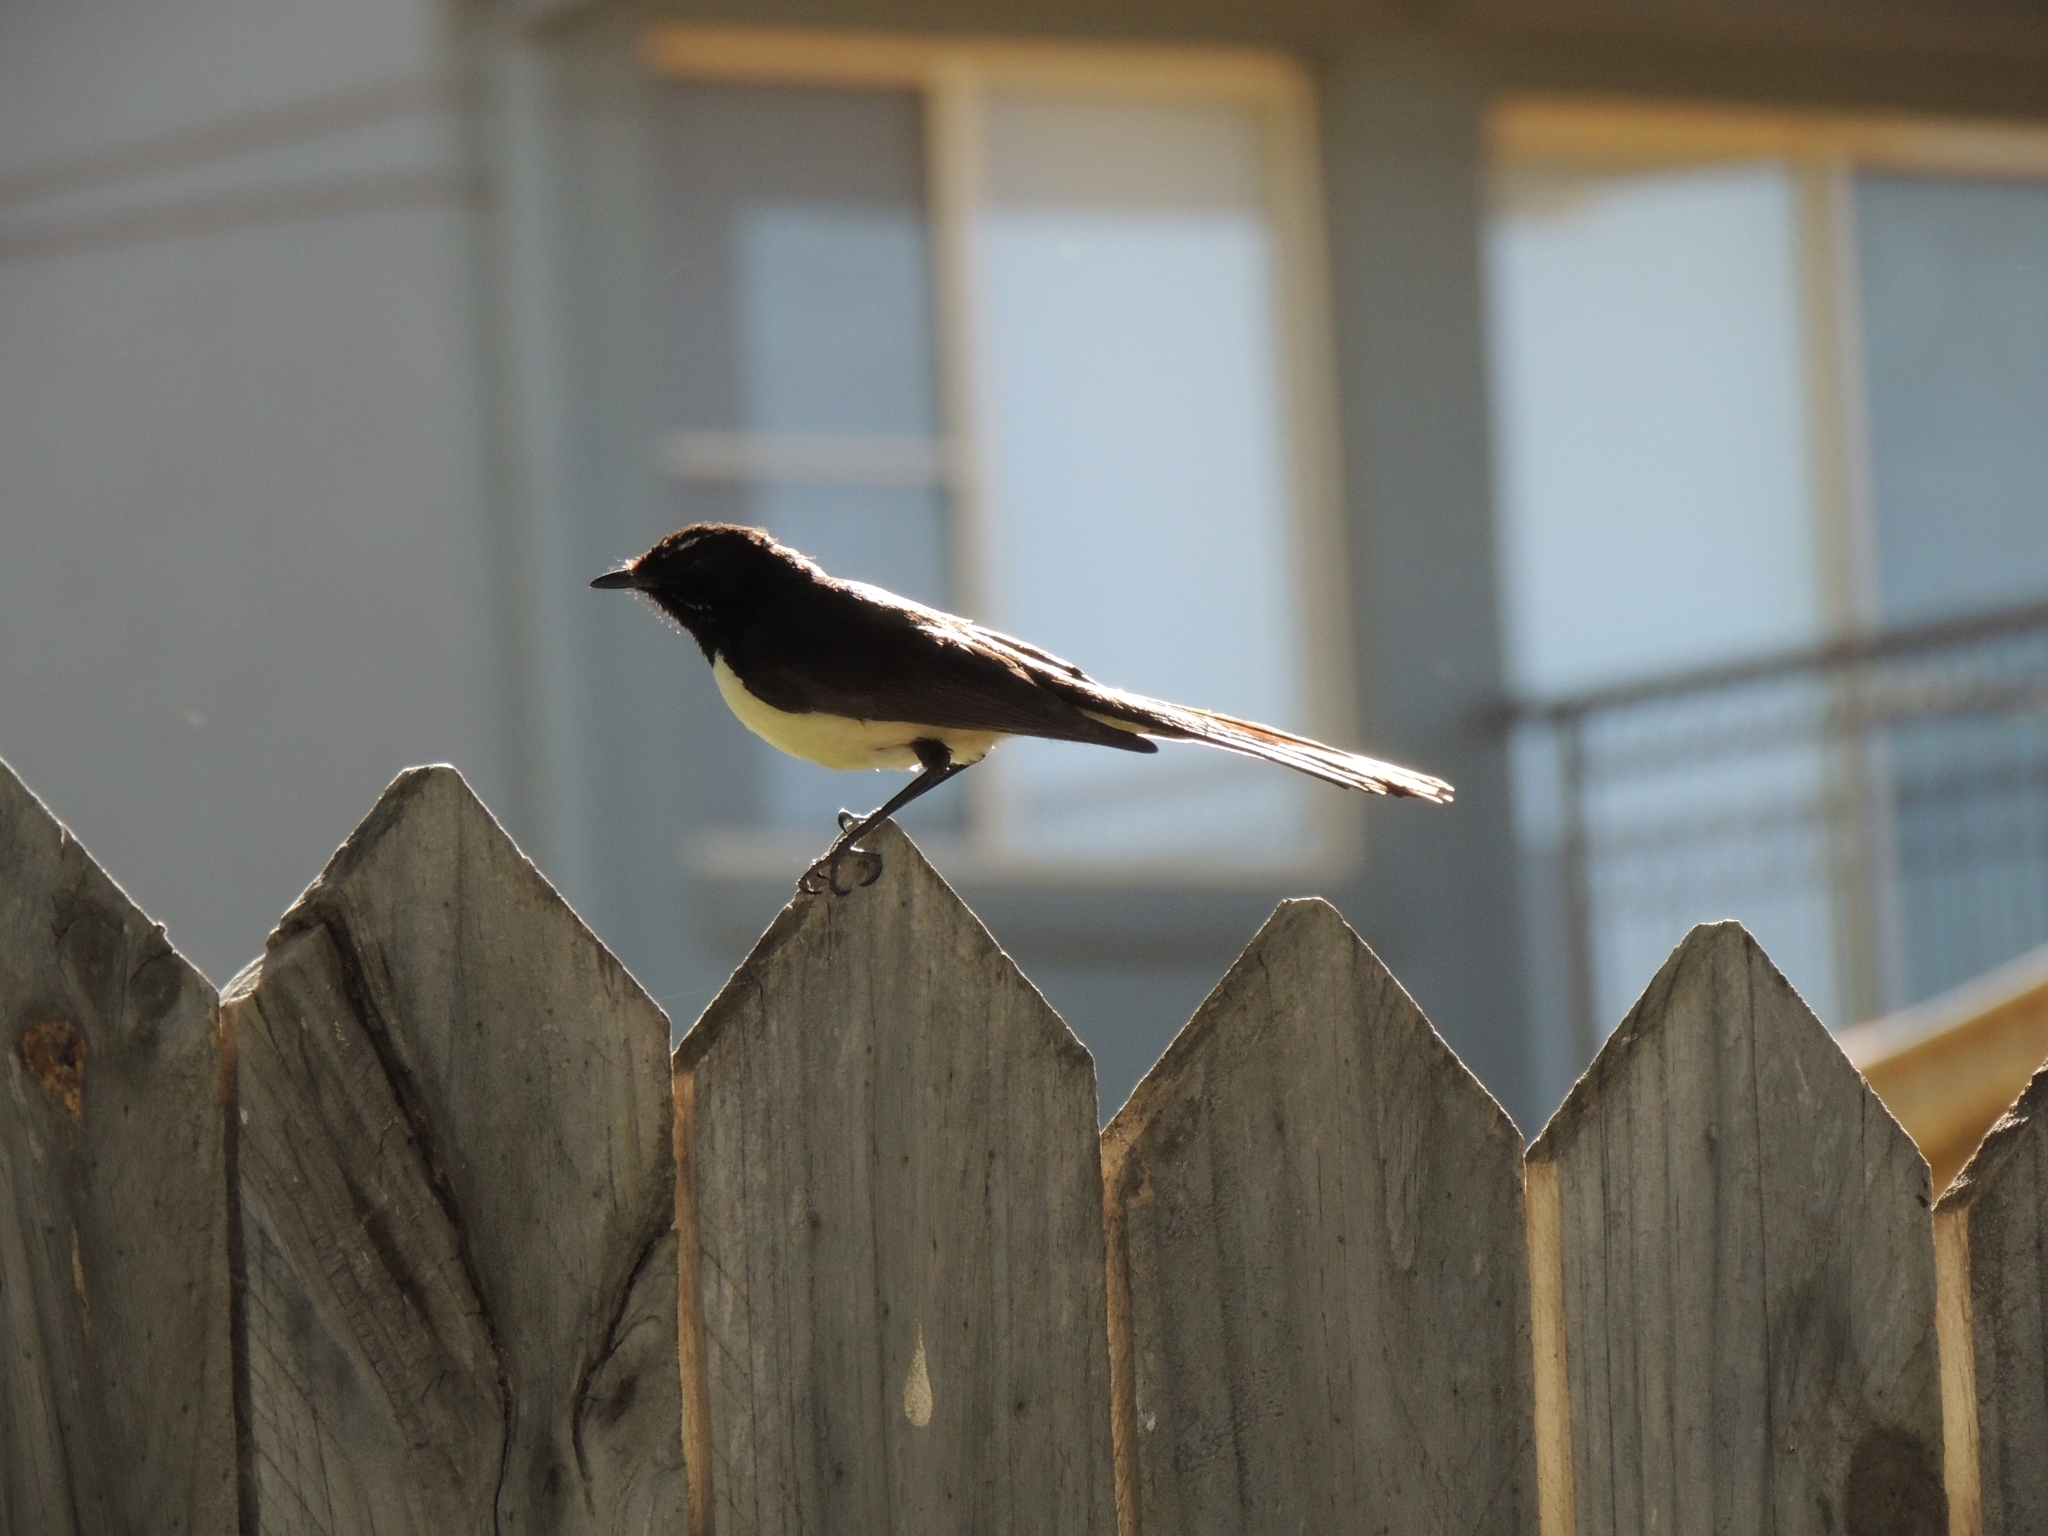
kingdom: Animalia
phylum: Chordata
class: Aves
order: Passeriformes
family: Rhipiduridae
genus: Rhipidura
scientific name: Rhipidura leucophrys
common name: Willie wagtail
